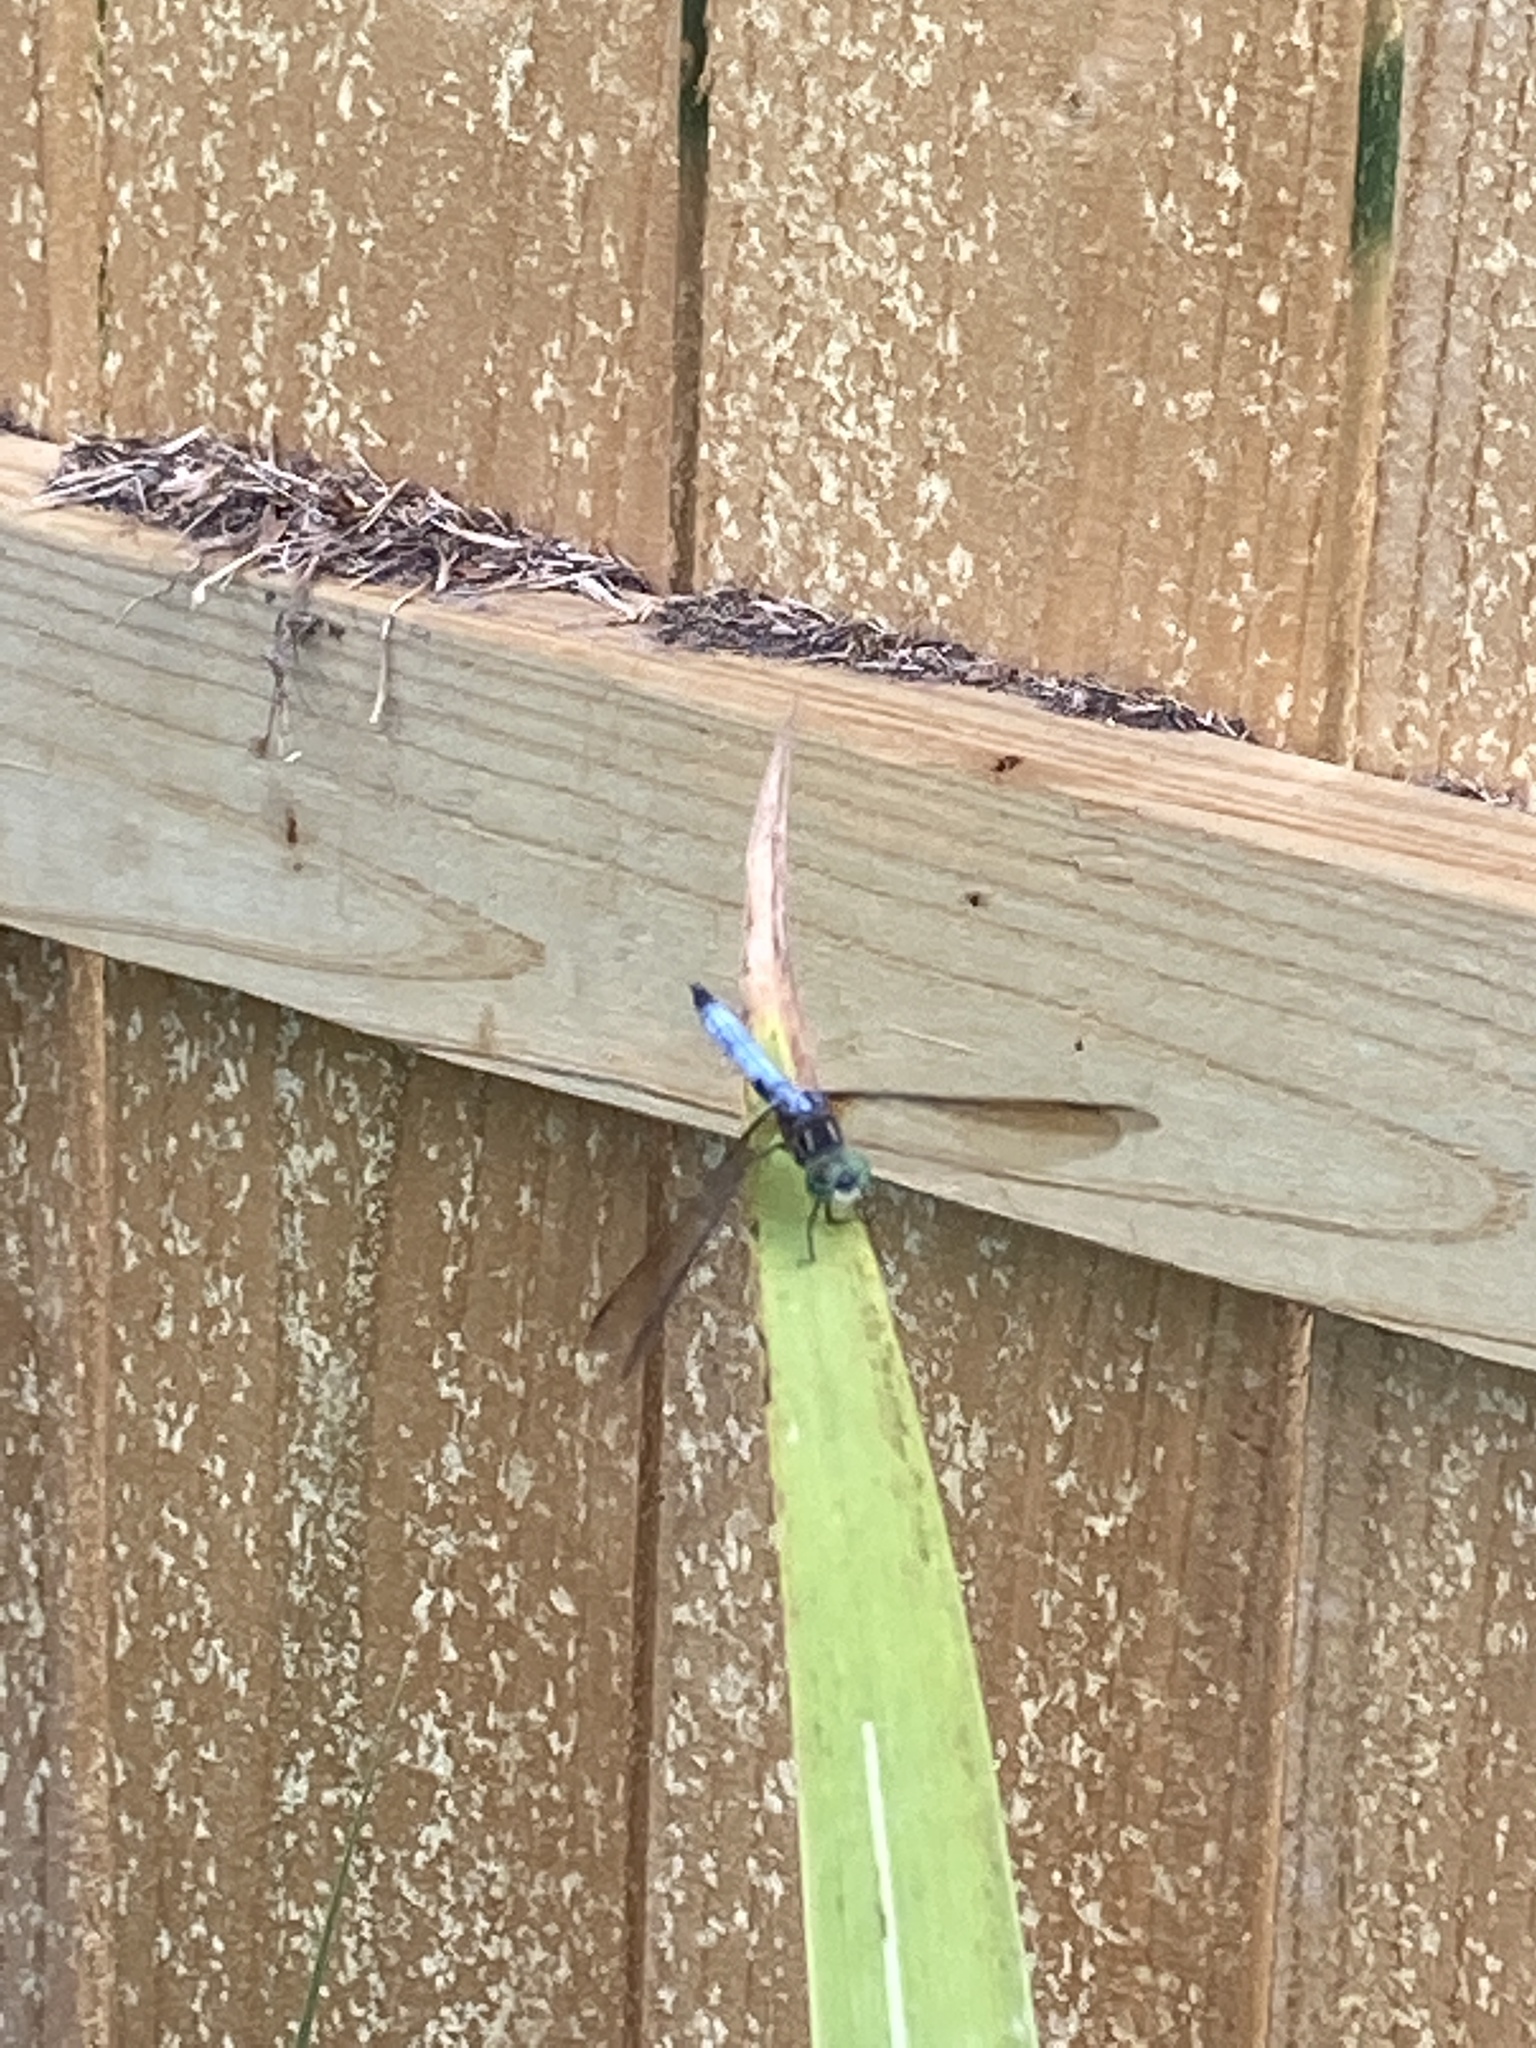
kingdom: Animalia
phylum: Arthropoda
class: Insecta
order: Odonata
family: Libellulidae
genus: Pachydiplax
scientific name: Pachydiplax longipennis
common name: Blue dasher
